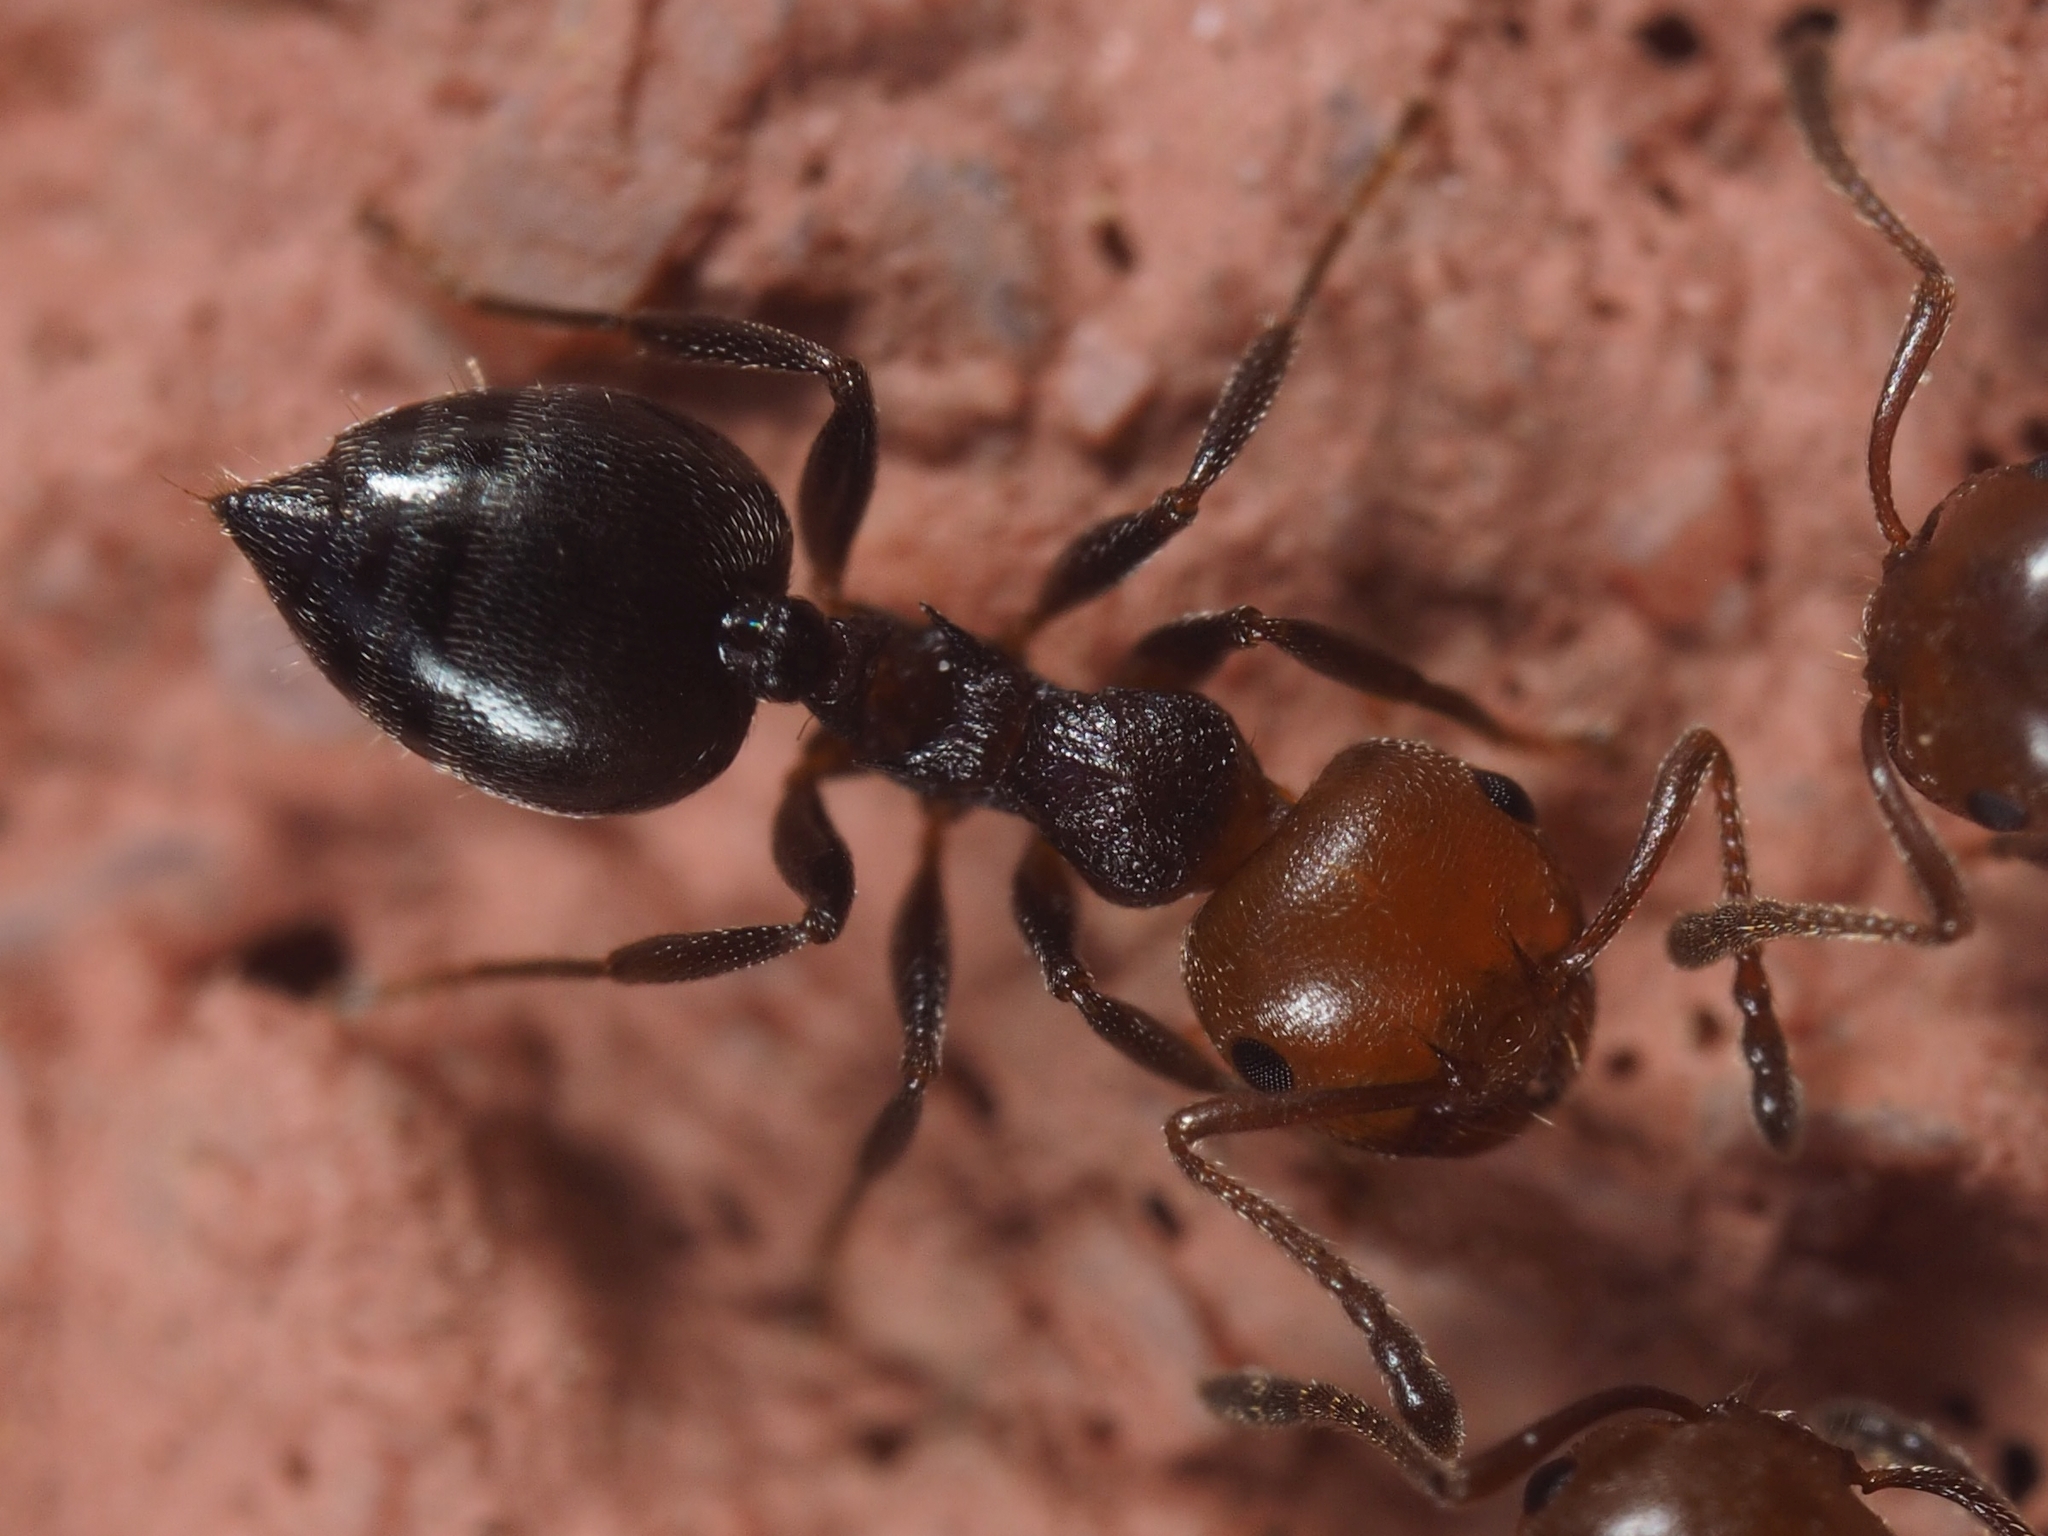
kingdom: Animalia
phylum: Arthropoda
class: Insecta
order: Hymenoptera
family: Formicidae
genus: Crematogaster
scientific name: Crematogaster scutellaris
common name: Fourmi du liège
